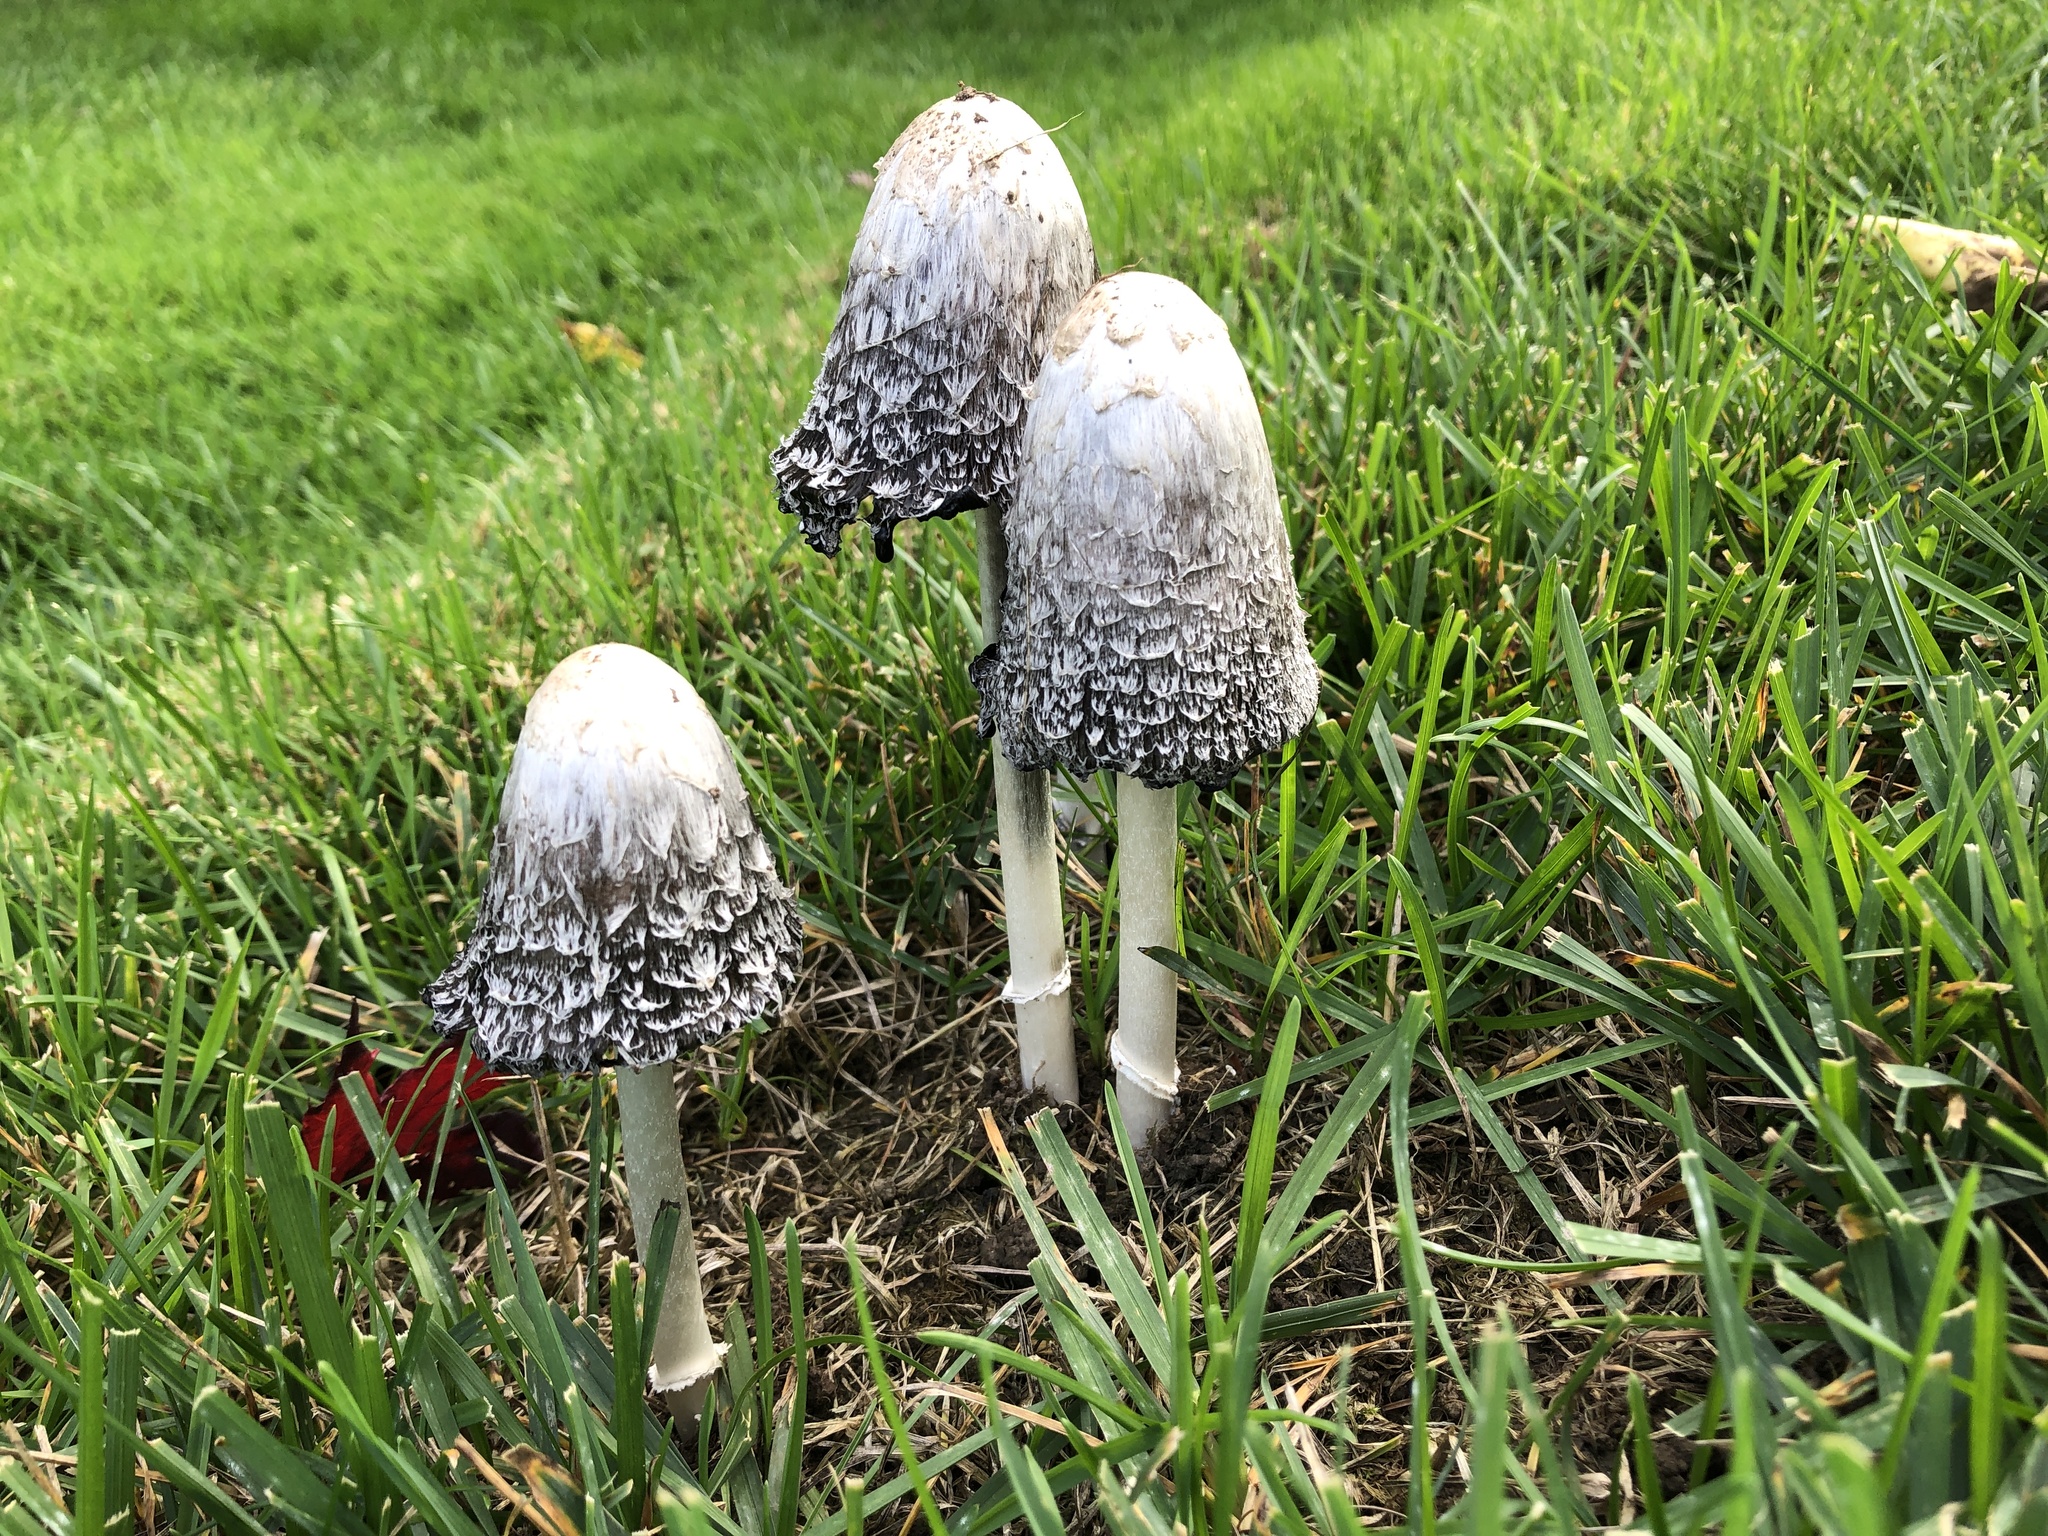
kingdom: Fungi
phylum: Basidiomycota
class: Agaricomycetes
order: Agaricales
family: Agaricaceae
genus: Coprinus
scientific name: Coprinus comatus
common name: Lawyer's wig
